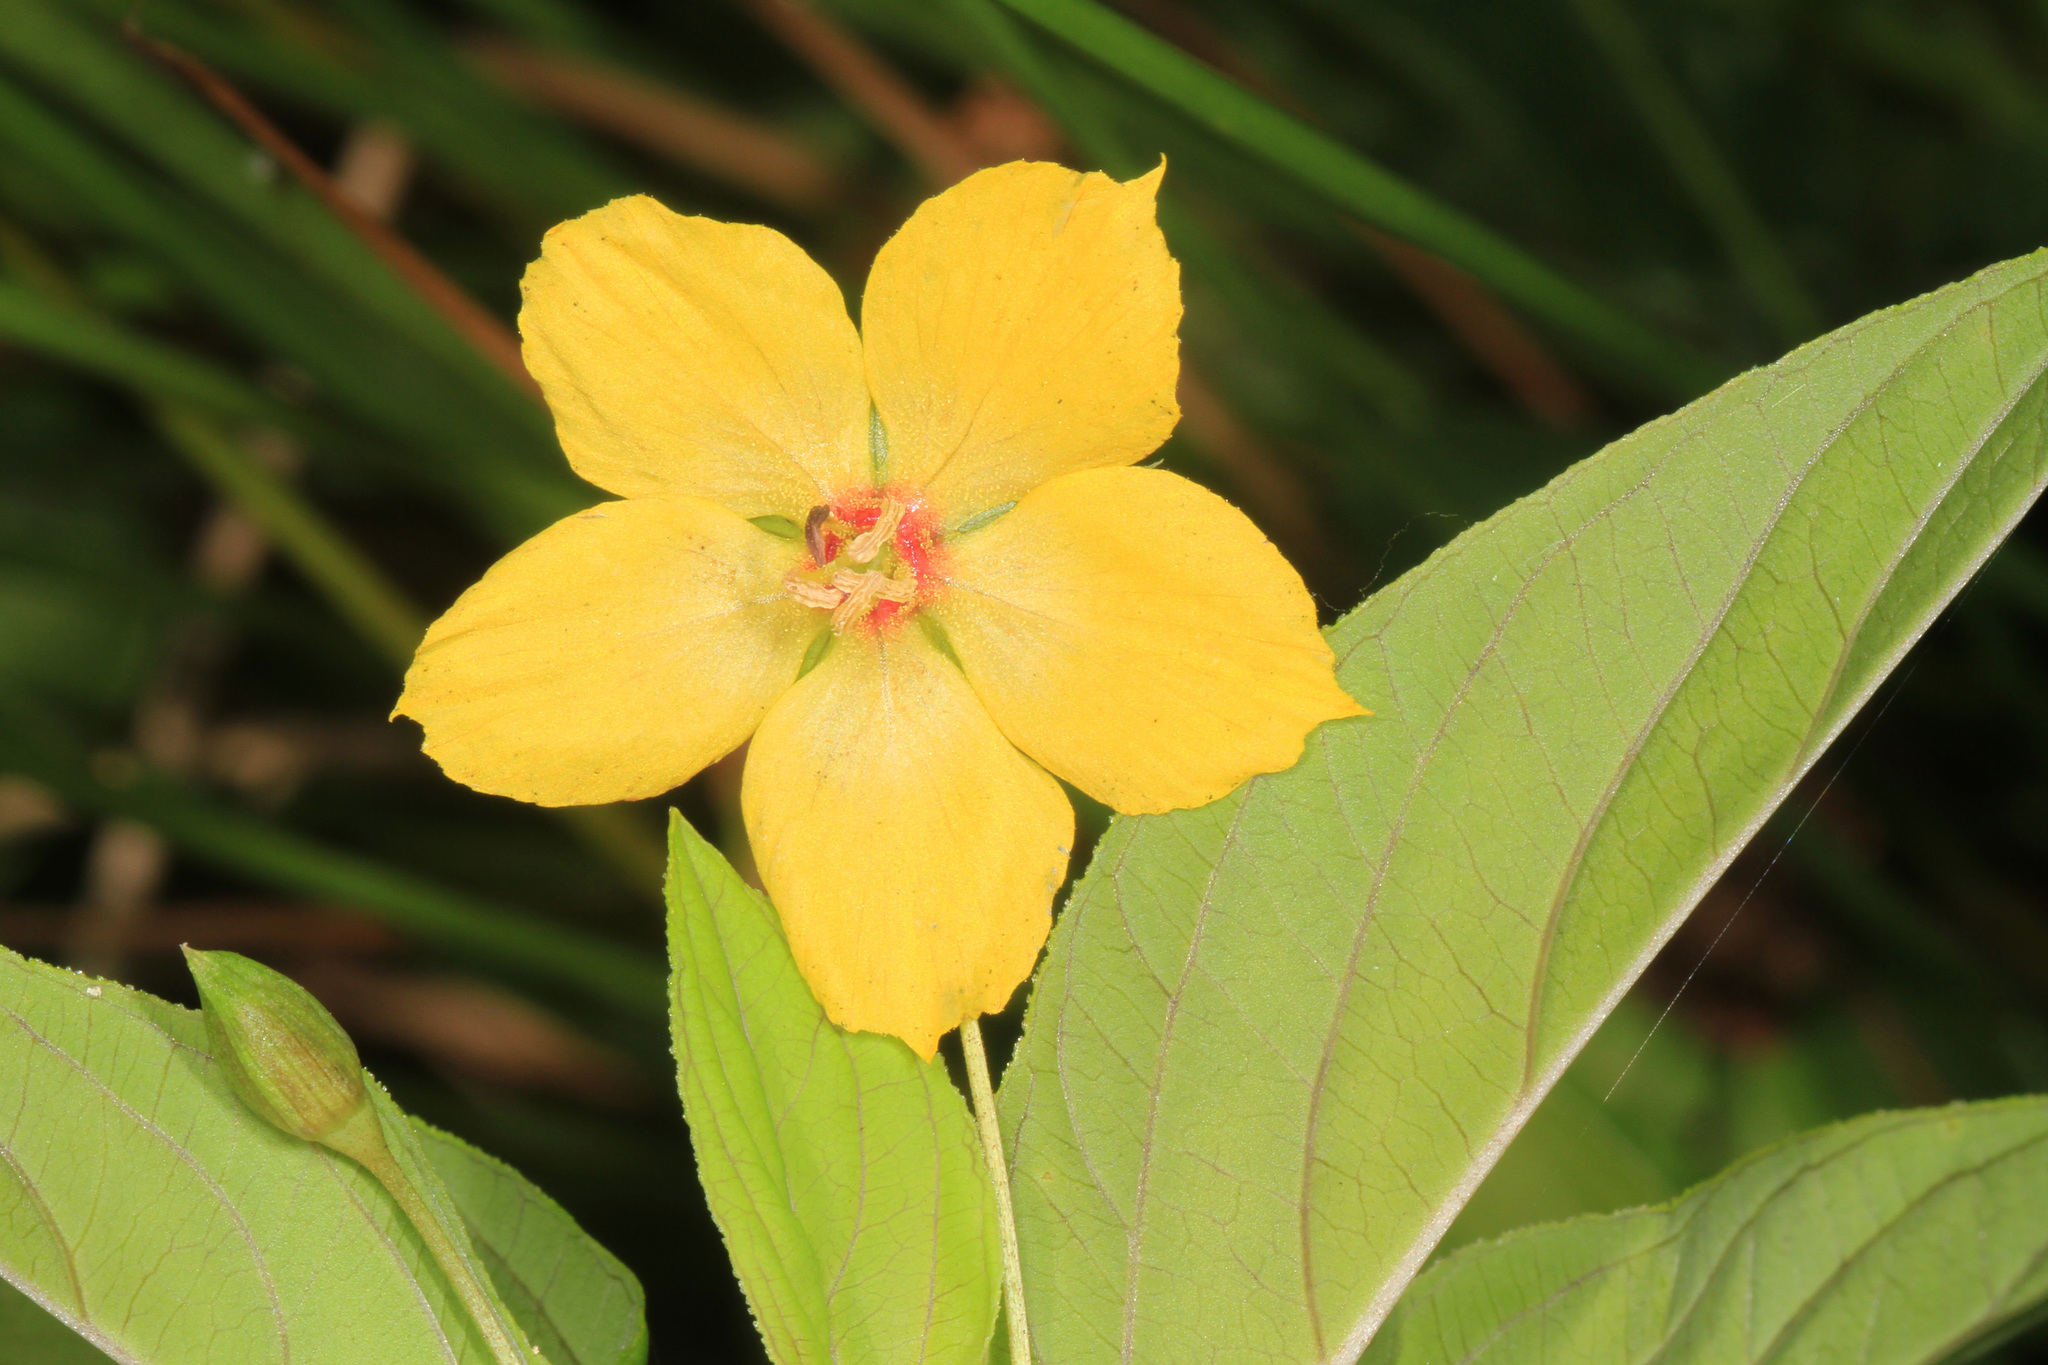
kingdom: Plantae
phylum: Tracheophyta
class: Magnoliopsida
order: Ericales
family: Primulaceae
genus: Lysimachia
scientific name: Lysimachia ciliata
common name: Fringed loosestrife
